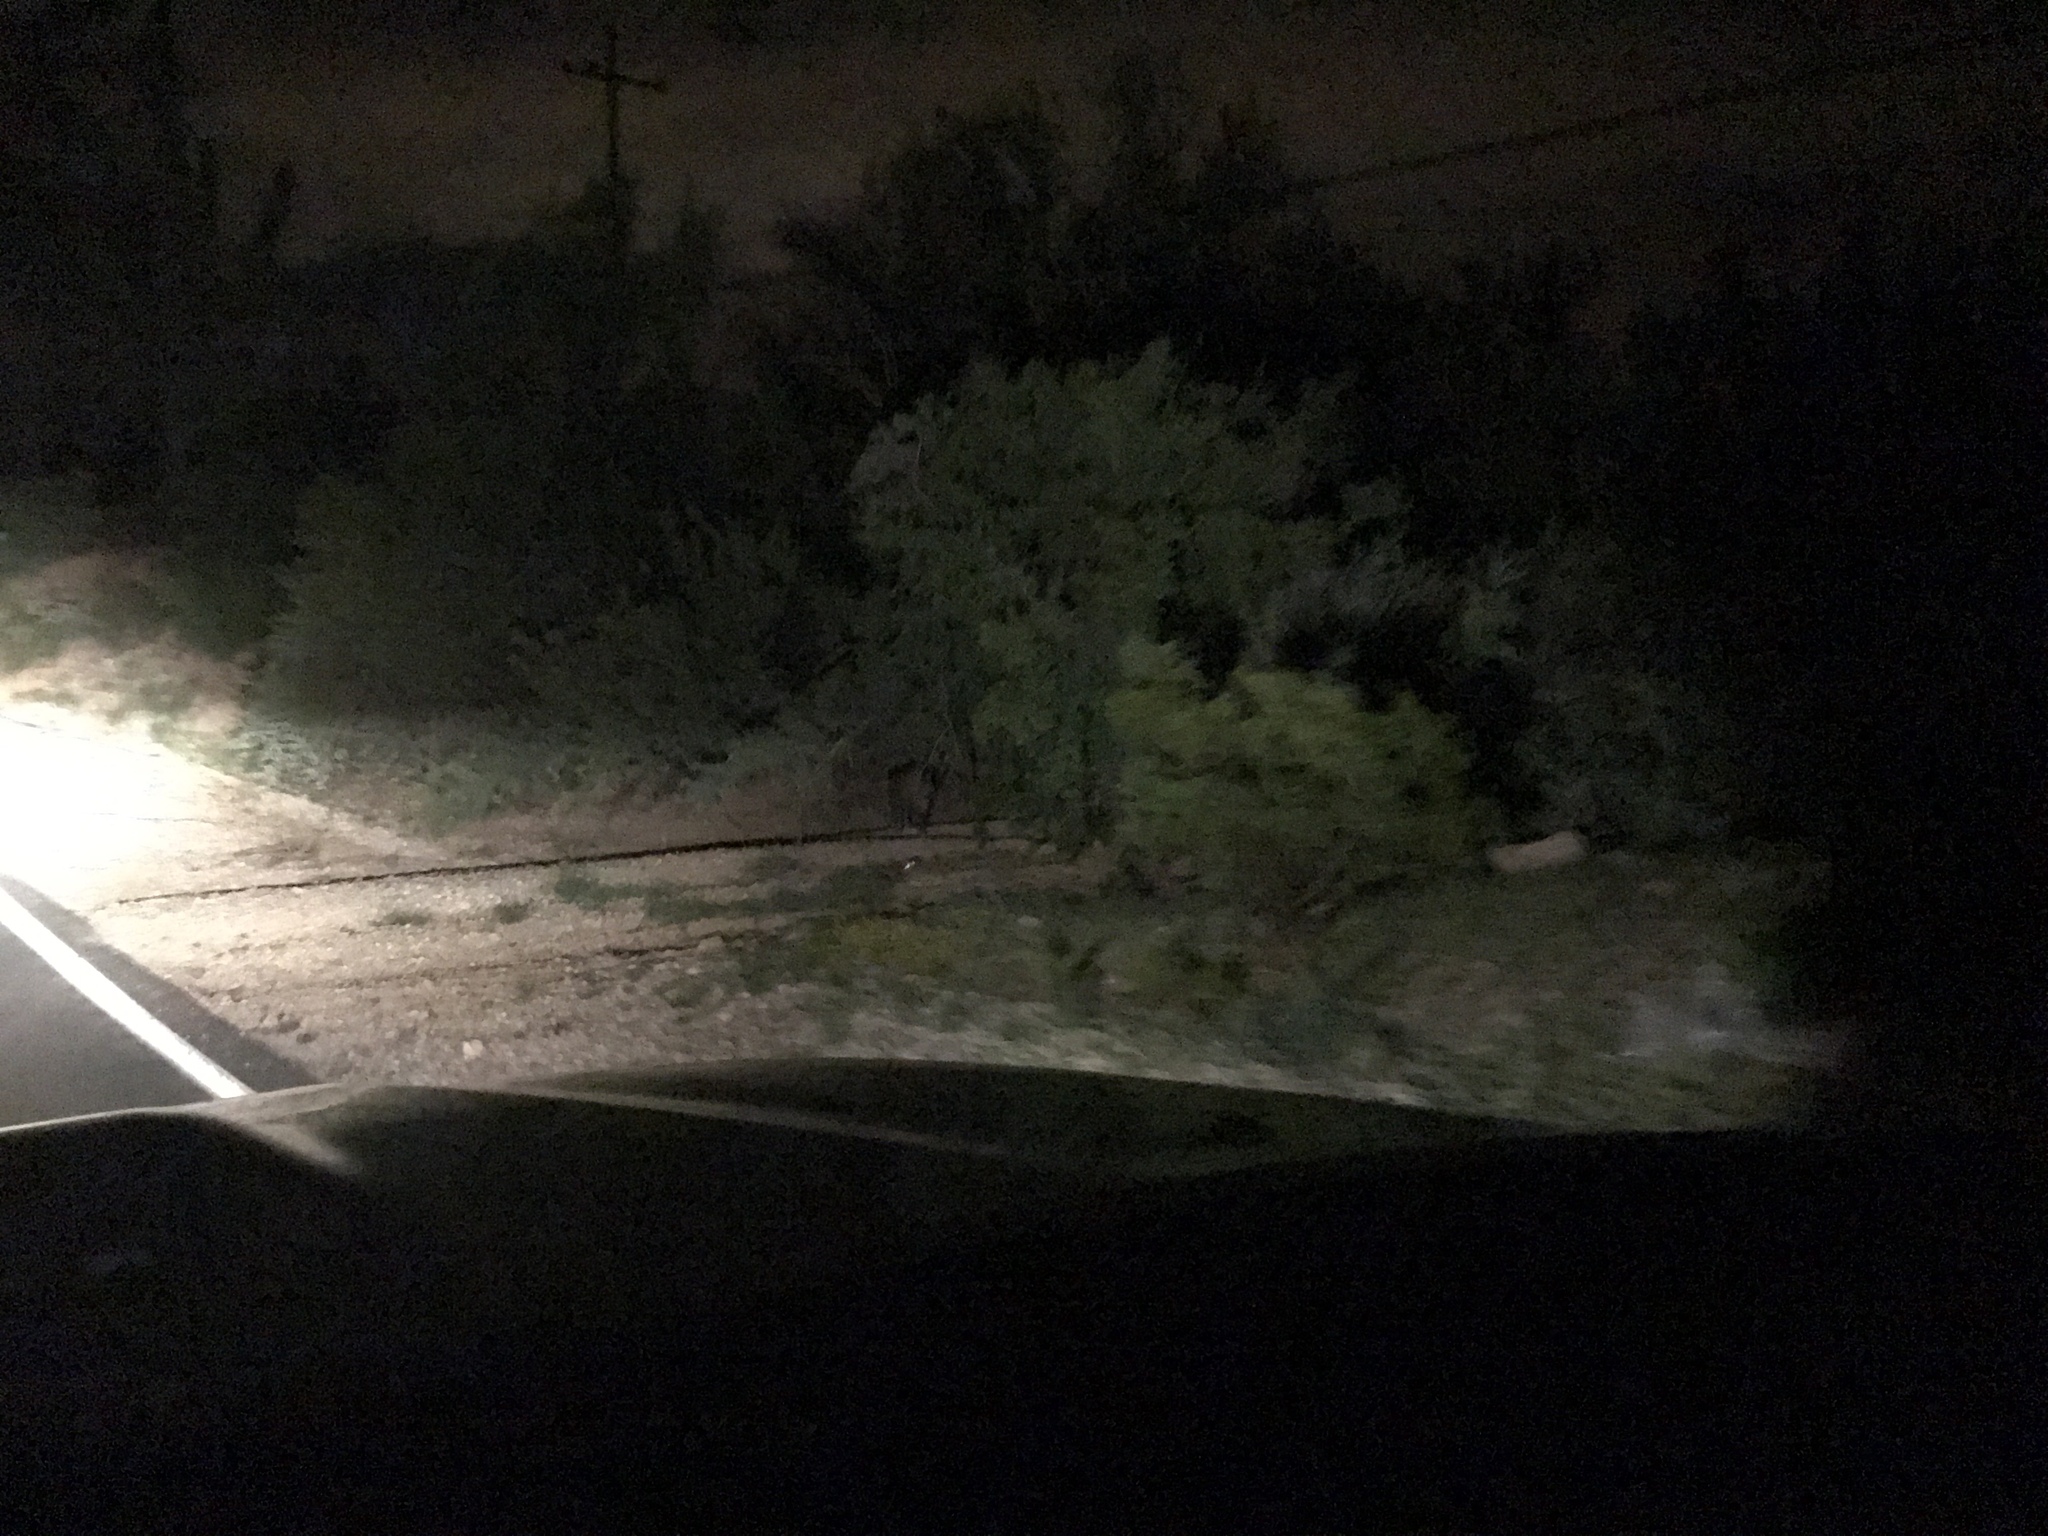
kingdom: Animalia
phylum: Chordata
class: Mammalia
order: Artiodactyla
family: Tayassuidae
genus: Pecari
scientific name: Pecari tajacu
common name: Collared peccary
